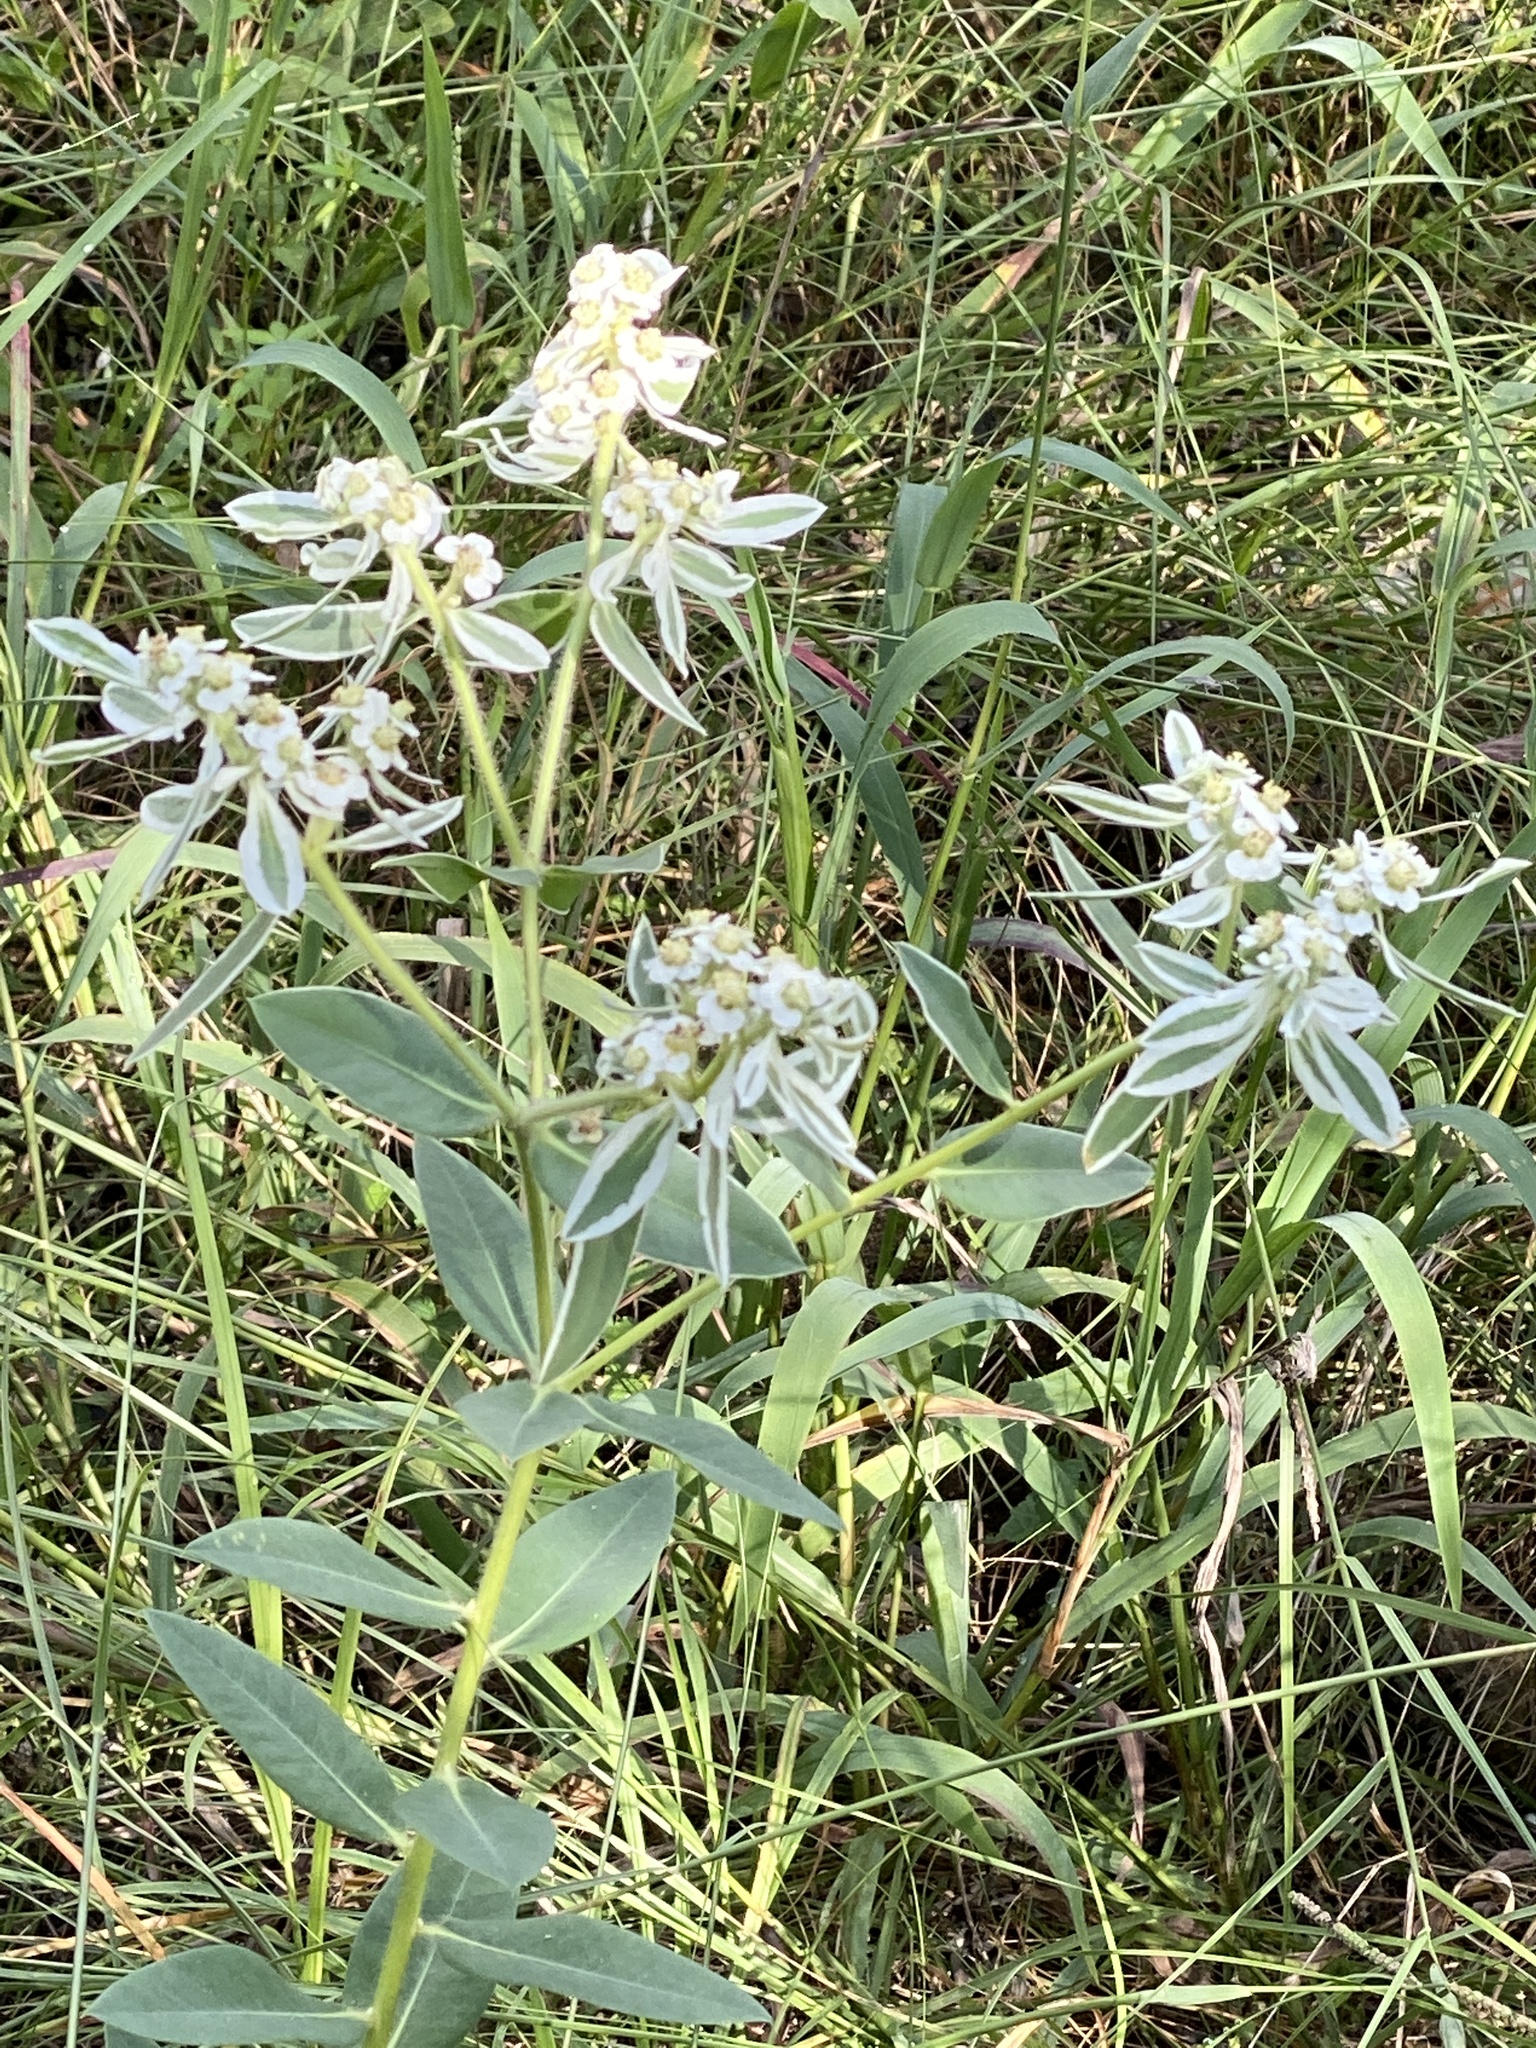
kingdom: Plantae
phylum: Tracheophyta
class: Magnoliopsida
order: Malpighiales
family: Euphorbiaceae
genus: Euphorbia
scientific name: Euphorbia marginata
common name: Ghostweed
